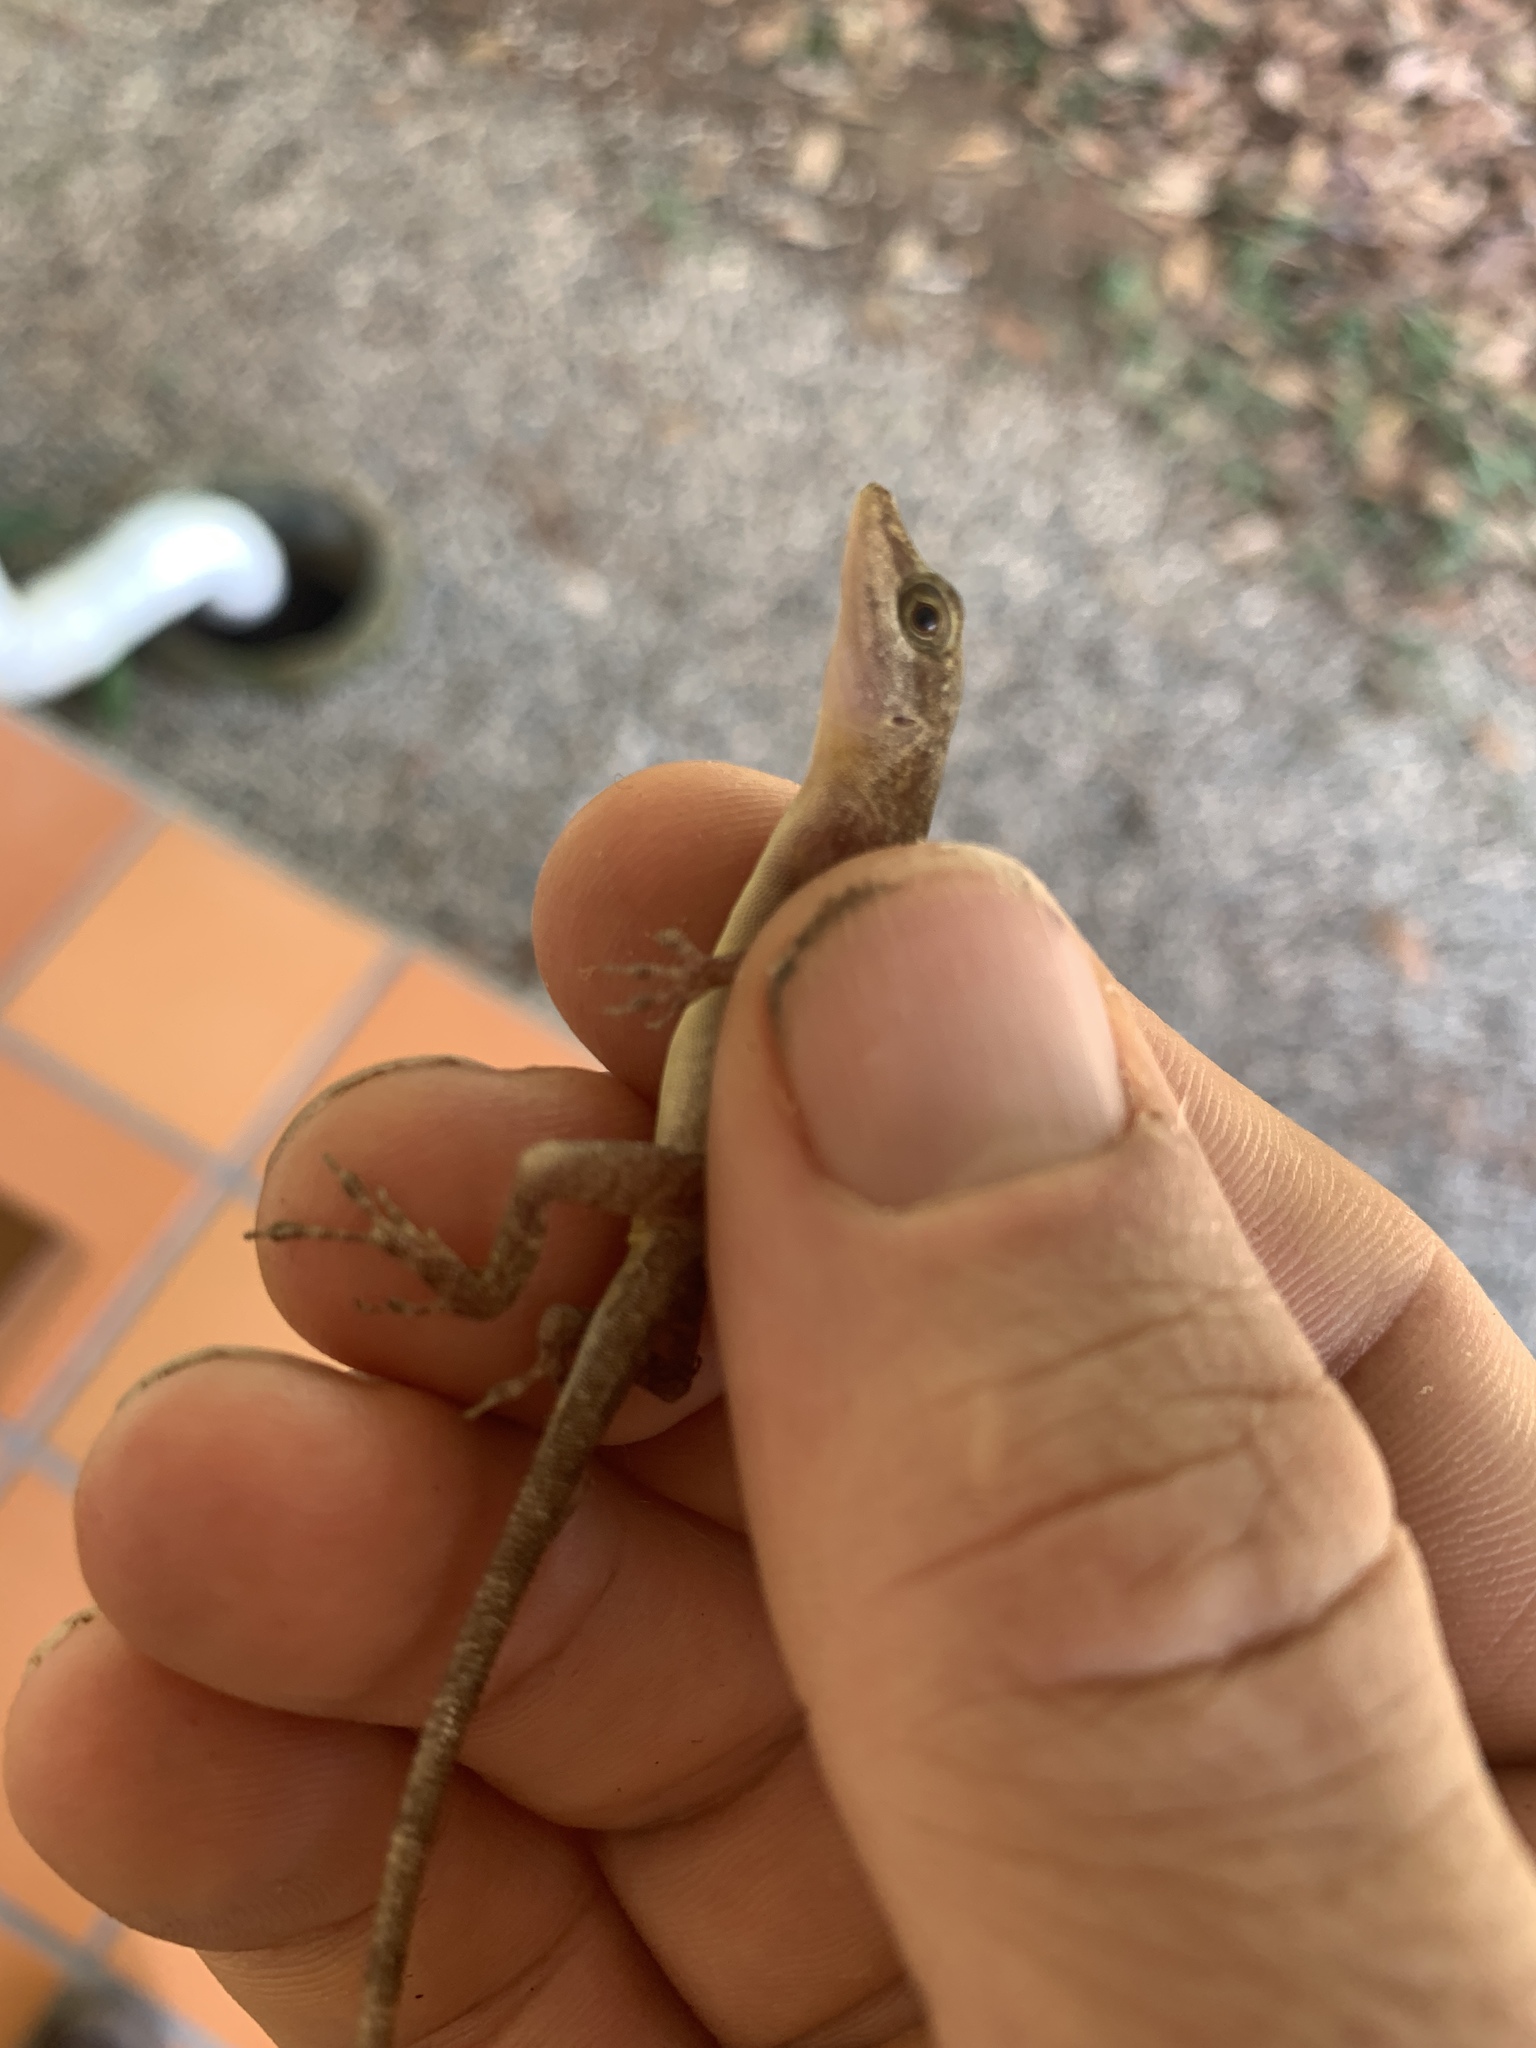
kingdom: Animalia
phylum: Chordata
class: Squamata
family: Dactyloidae
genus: Anolis
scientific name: Anolis limifrons
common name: Border anole
